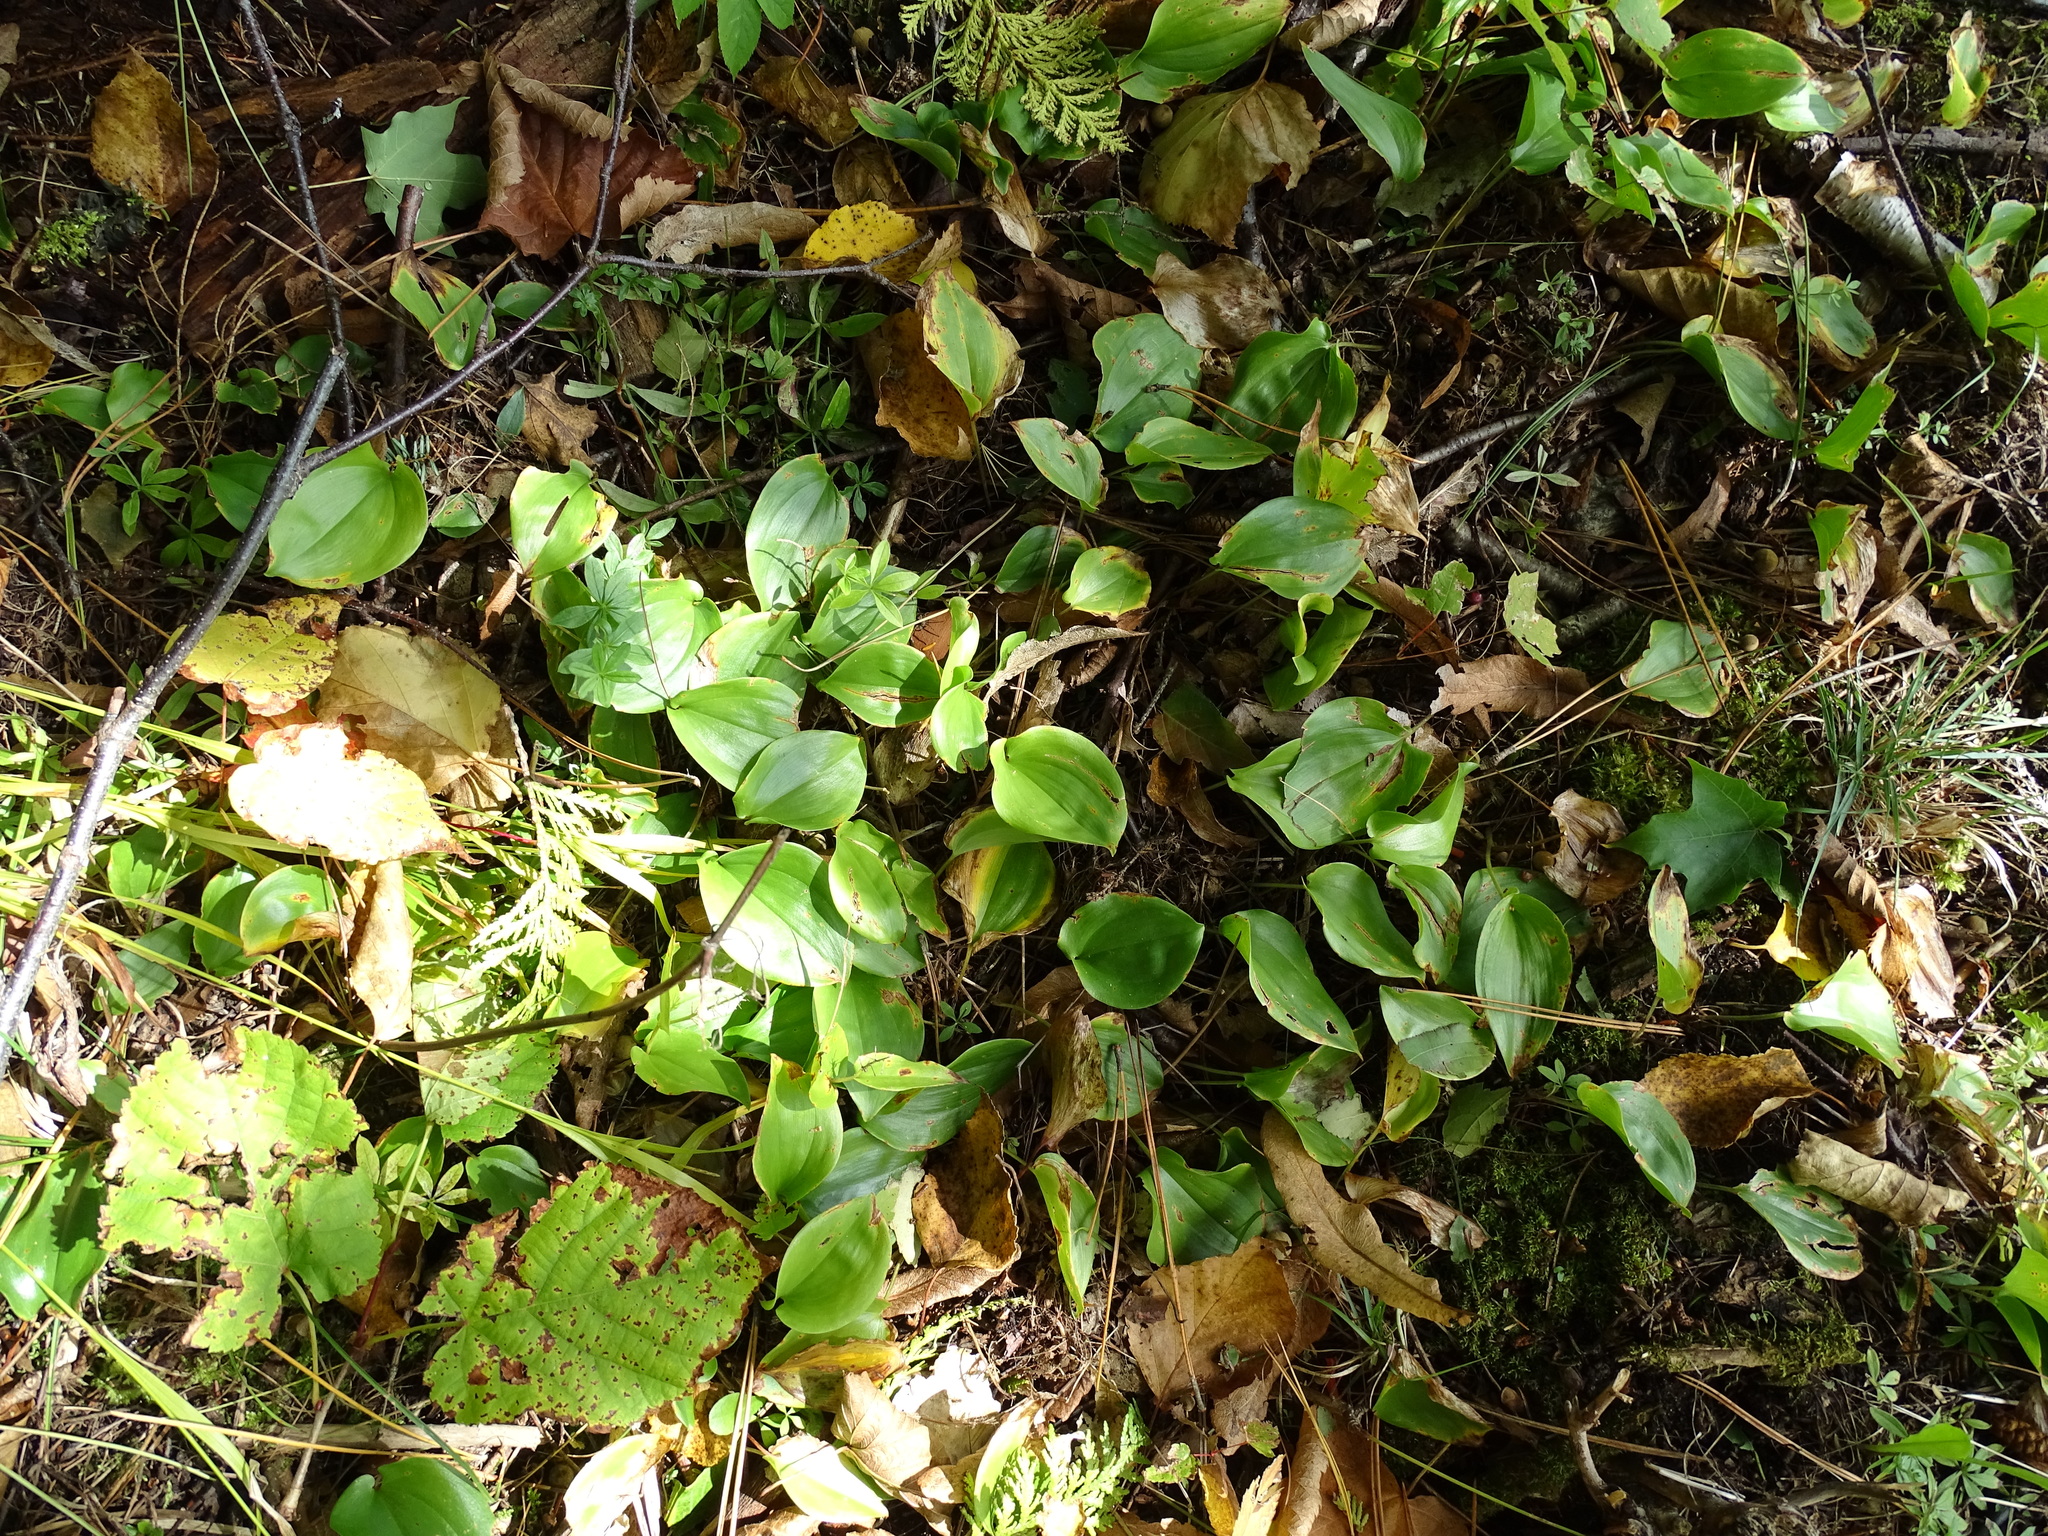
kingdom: Plantae
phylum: Tracheophyta
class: Liliopsida
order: Asparagales
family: Asparagaceae
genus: Maianthemum
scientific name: Maianthemum canadense
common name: False lily-of-the-valley
